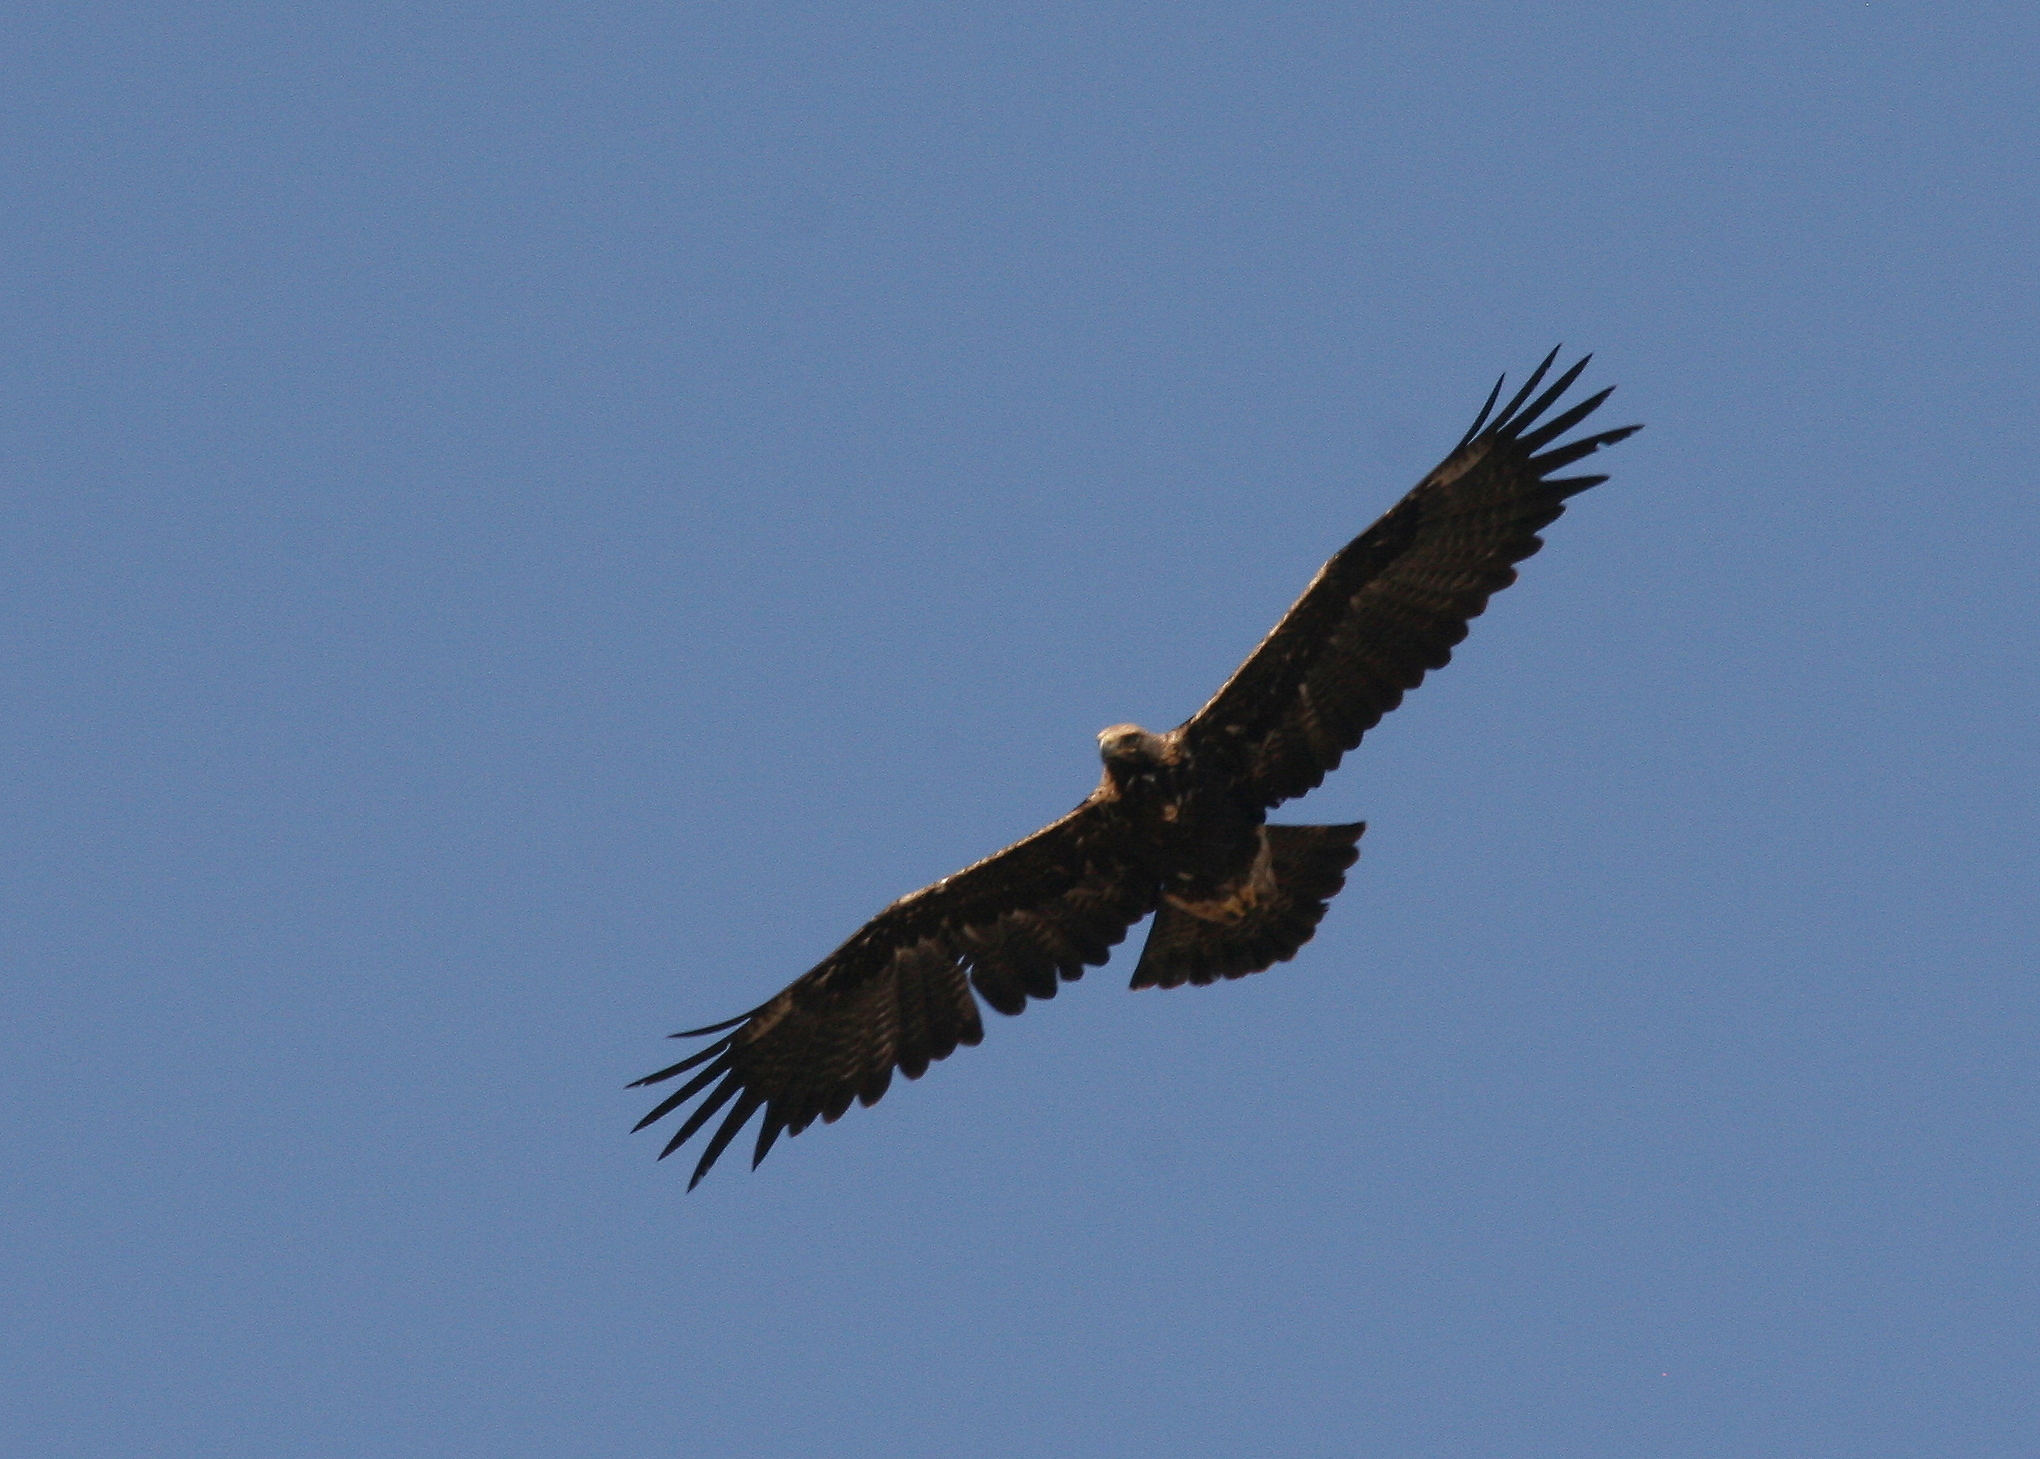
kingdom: Animalia
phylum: Chordata
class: Aves
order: Accipitriformes
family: Accipitridae
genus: Aquila
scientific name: Aquila heliaca
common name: Eastern imperial eagle
